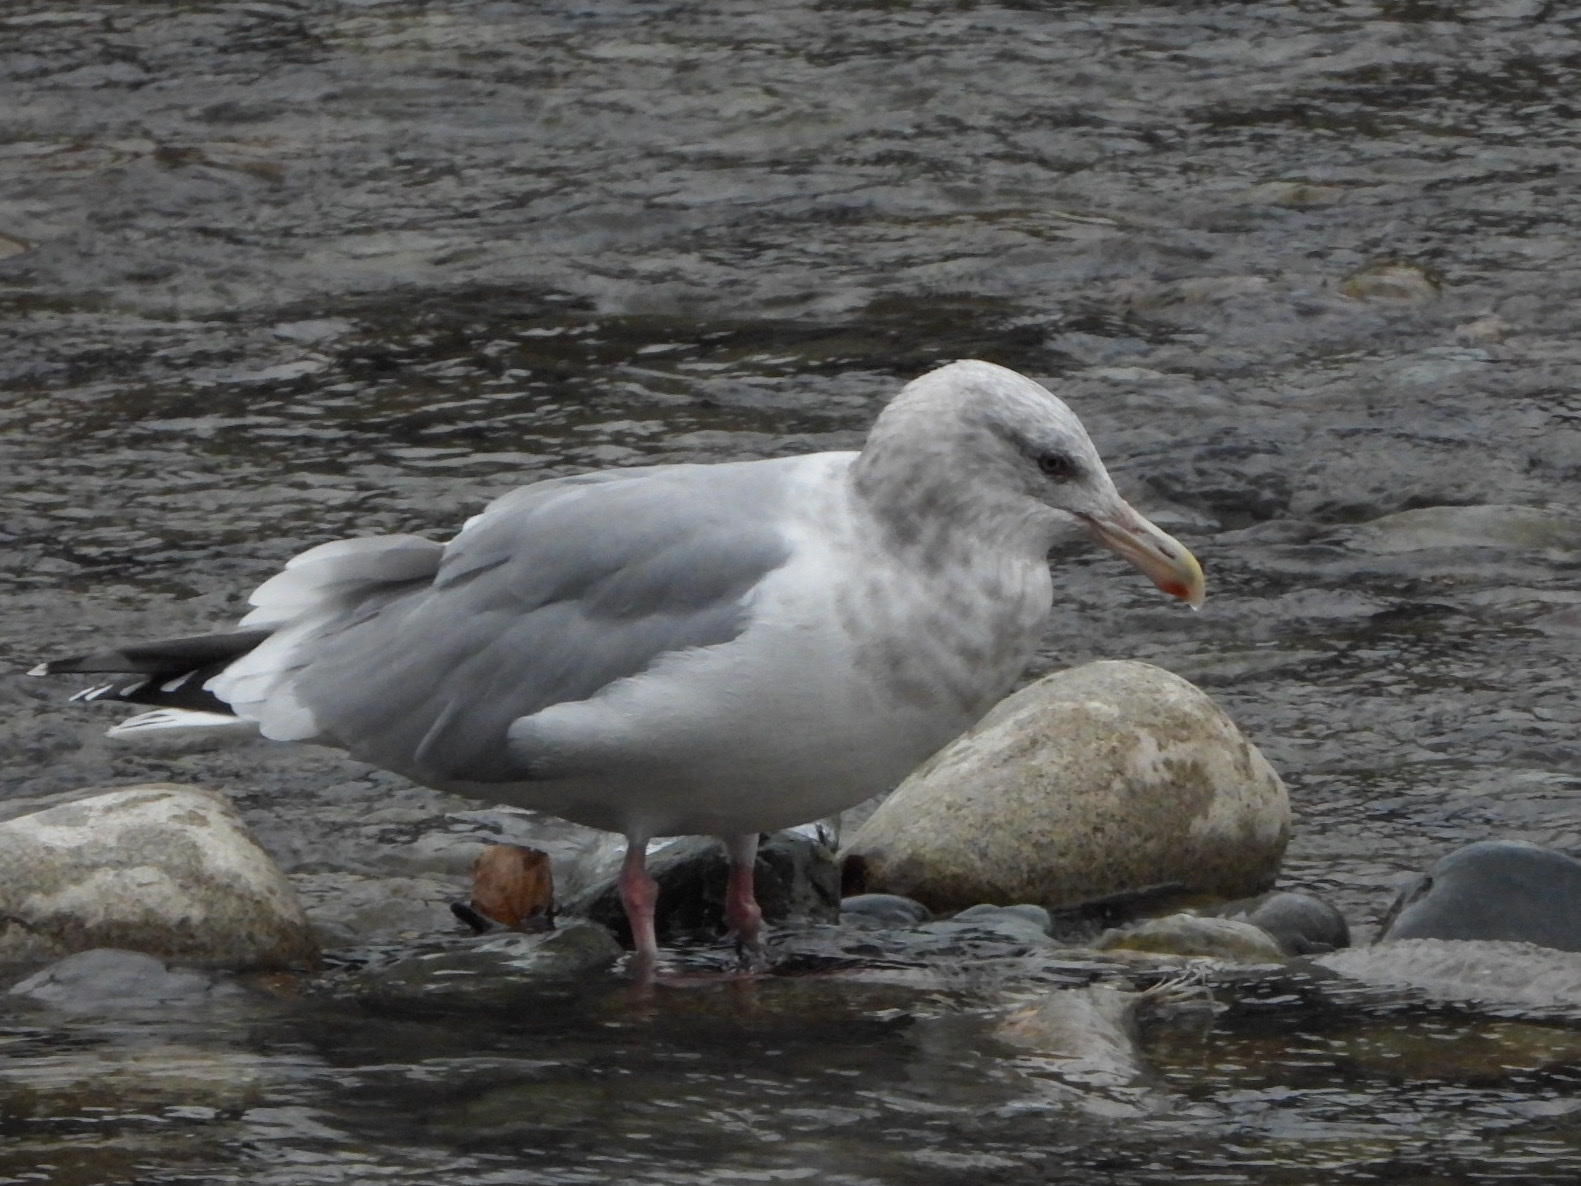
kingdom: Animalia
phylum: Chordata
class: Aves
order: Charadriiformes
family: Laridae
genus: Larus
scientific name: Larus
